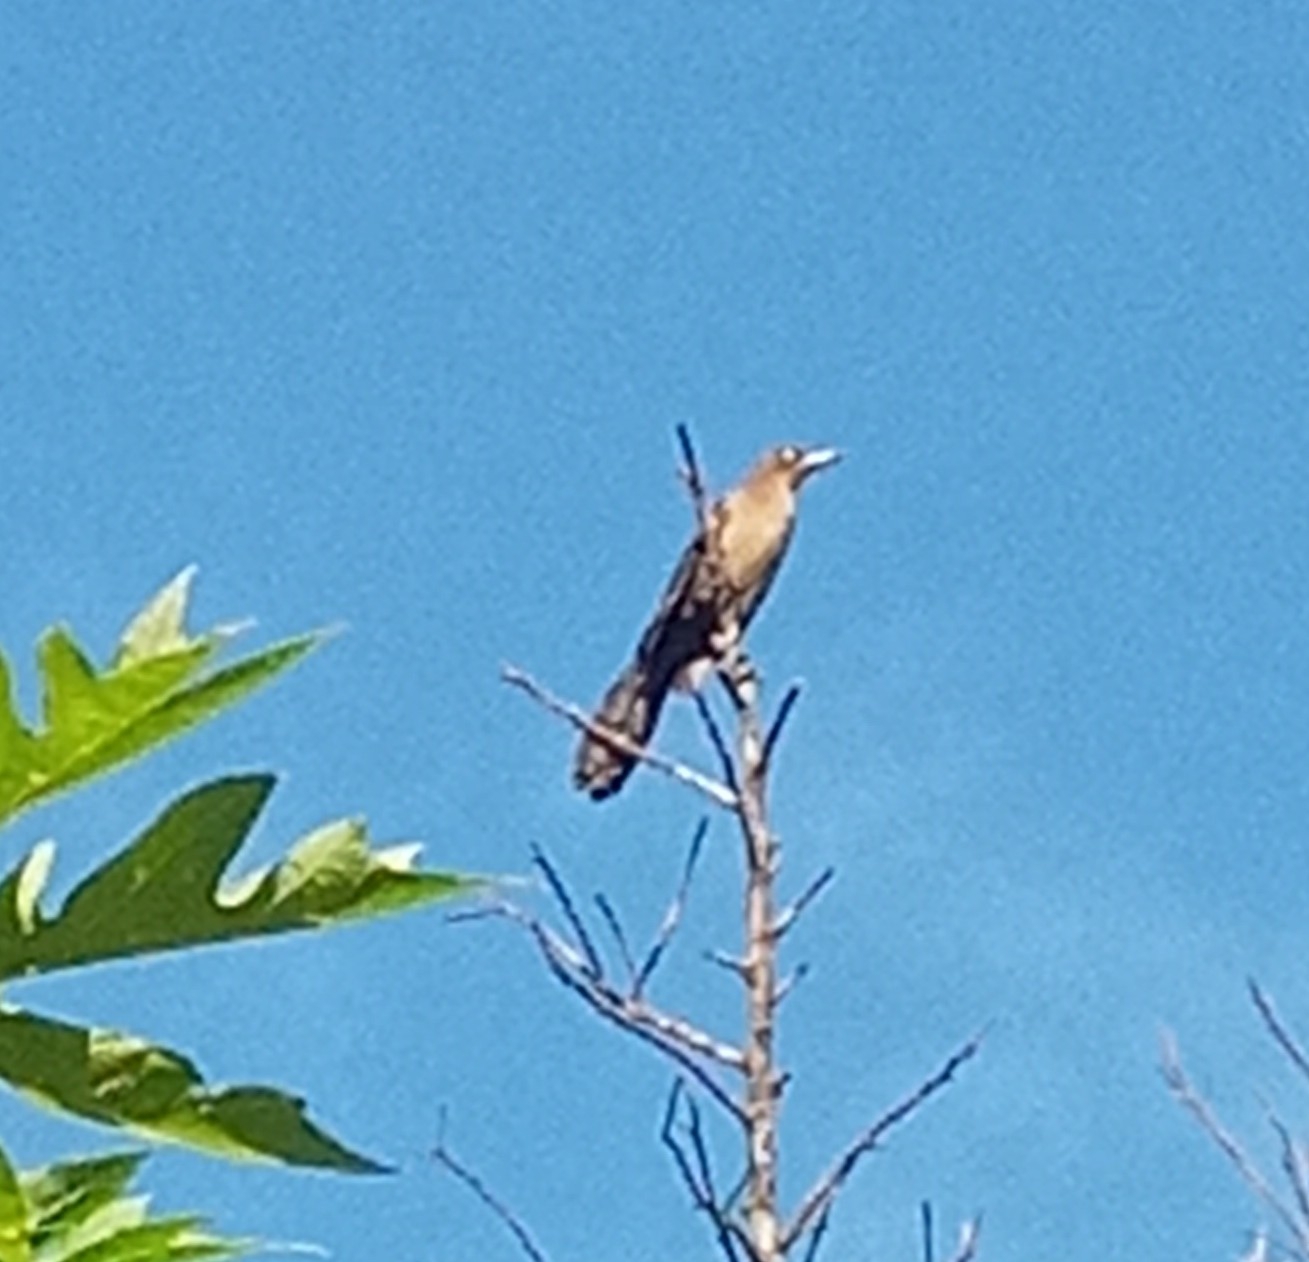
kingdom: Animalia
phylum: Chordata
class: Aves
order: Passeriformes
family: Icteridae
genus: Quiscalus
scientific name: Quiscalus mexicanus
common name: Great-tailed grackle
